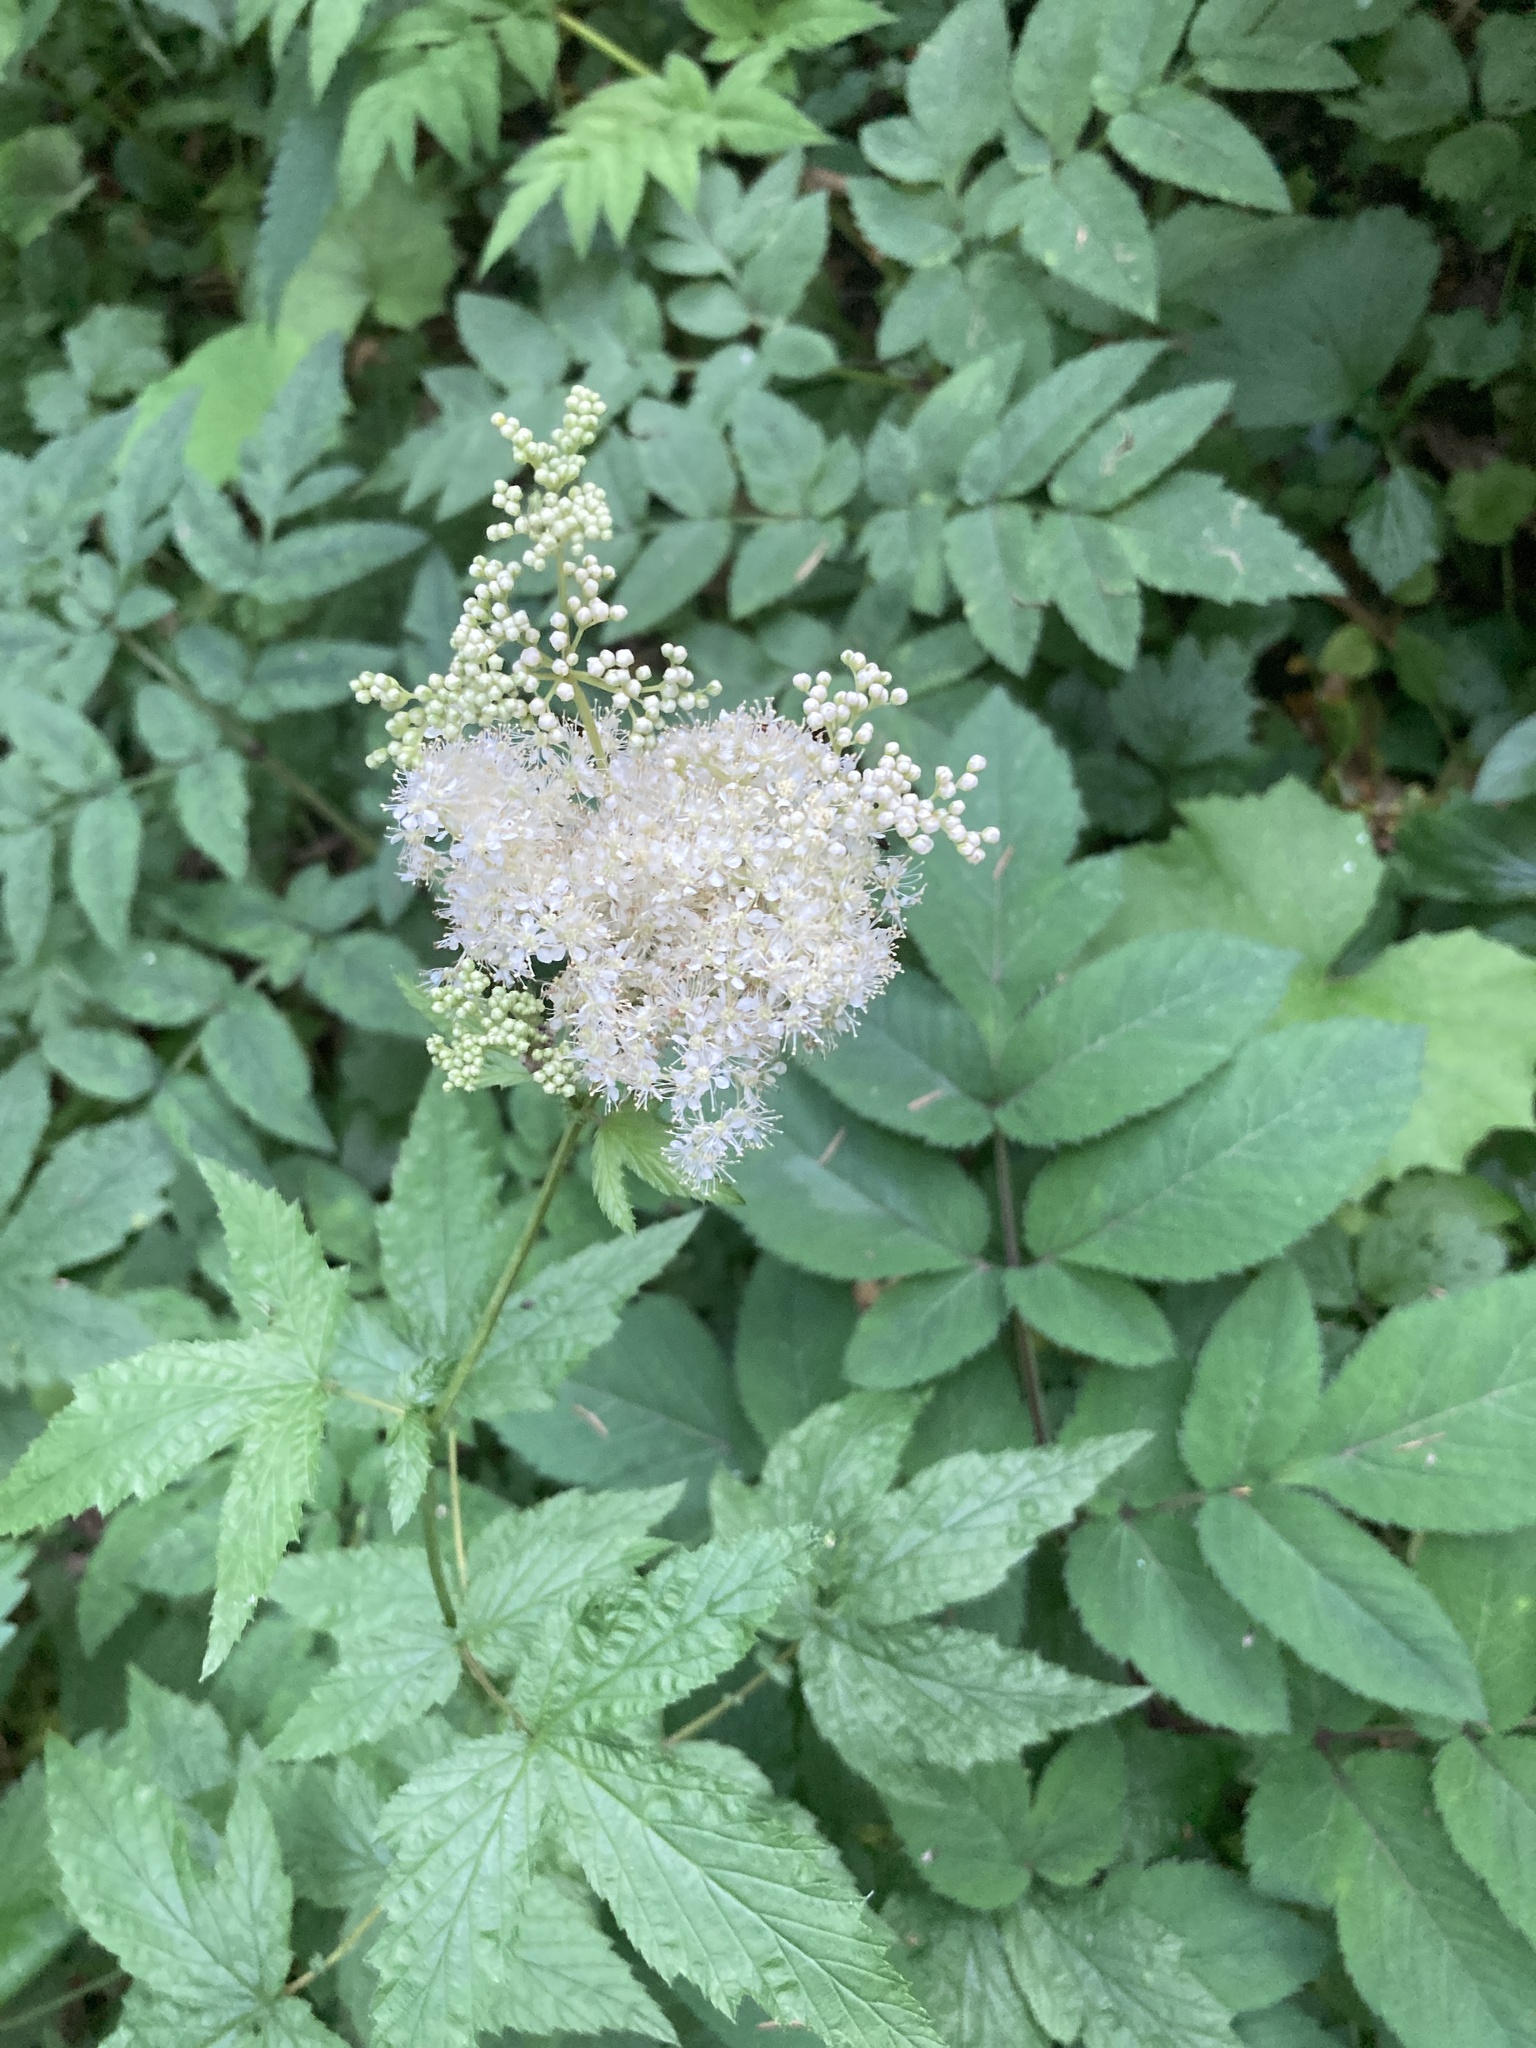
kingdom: Plantae
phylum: Tracheophyta
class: Magnoliopsida
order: Rosales
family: Rosaceae
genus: Filipendula
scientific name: Filipendula ulmaria
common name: Meadowsweet
